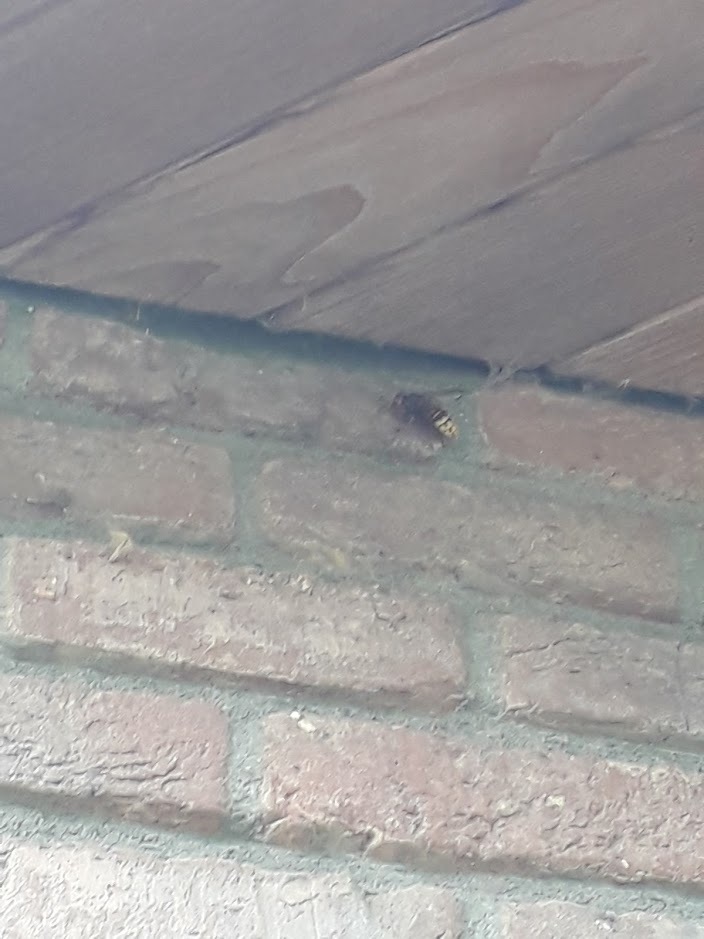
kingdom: Animalia
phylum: Arthropoda
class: Insecta
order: Hymenoptera
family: Vespidae
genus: Vespa
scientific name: Vespa crabro
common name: Hornet
